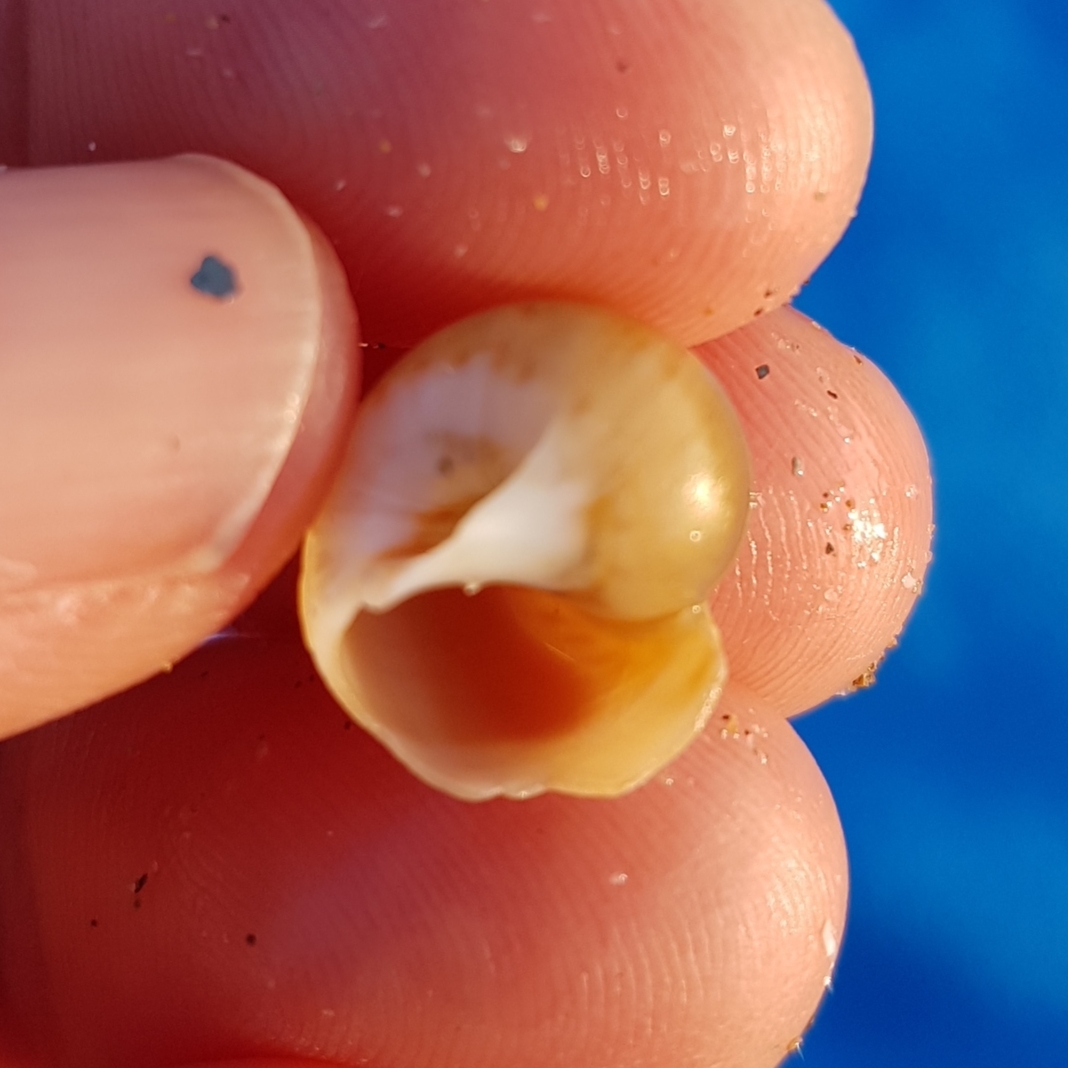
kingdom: Animalia
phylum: Mollusca
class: Gastropoda
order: Littorinimorpha
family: Naticidae
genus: Euspira
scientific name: Euspira catena
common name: Necklace shell
